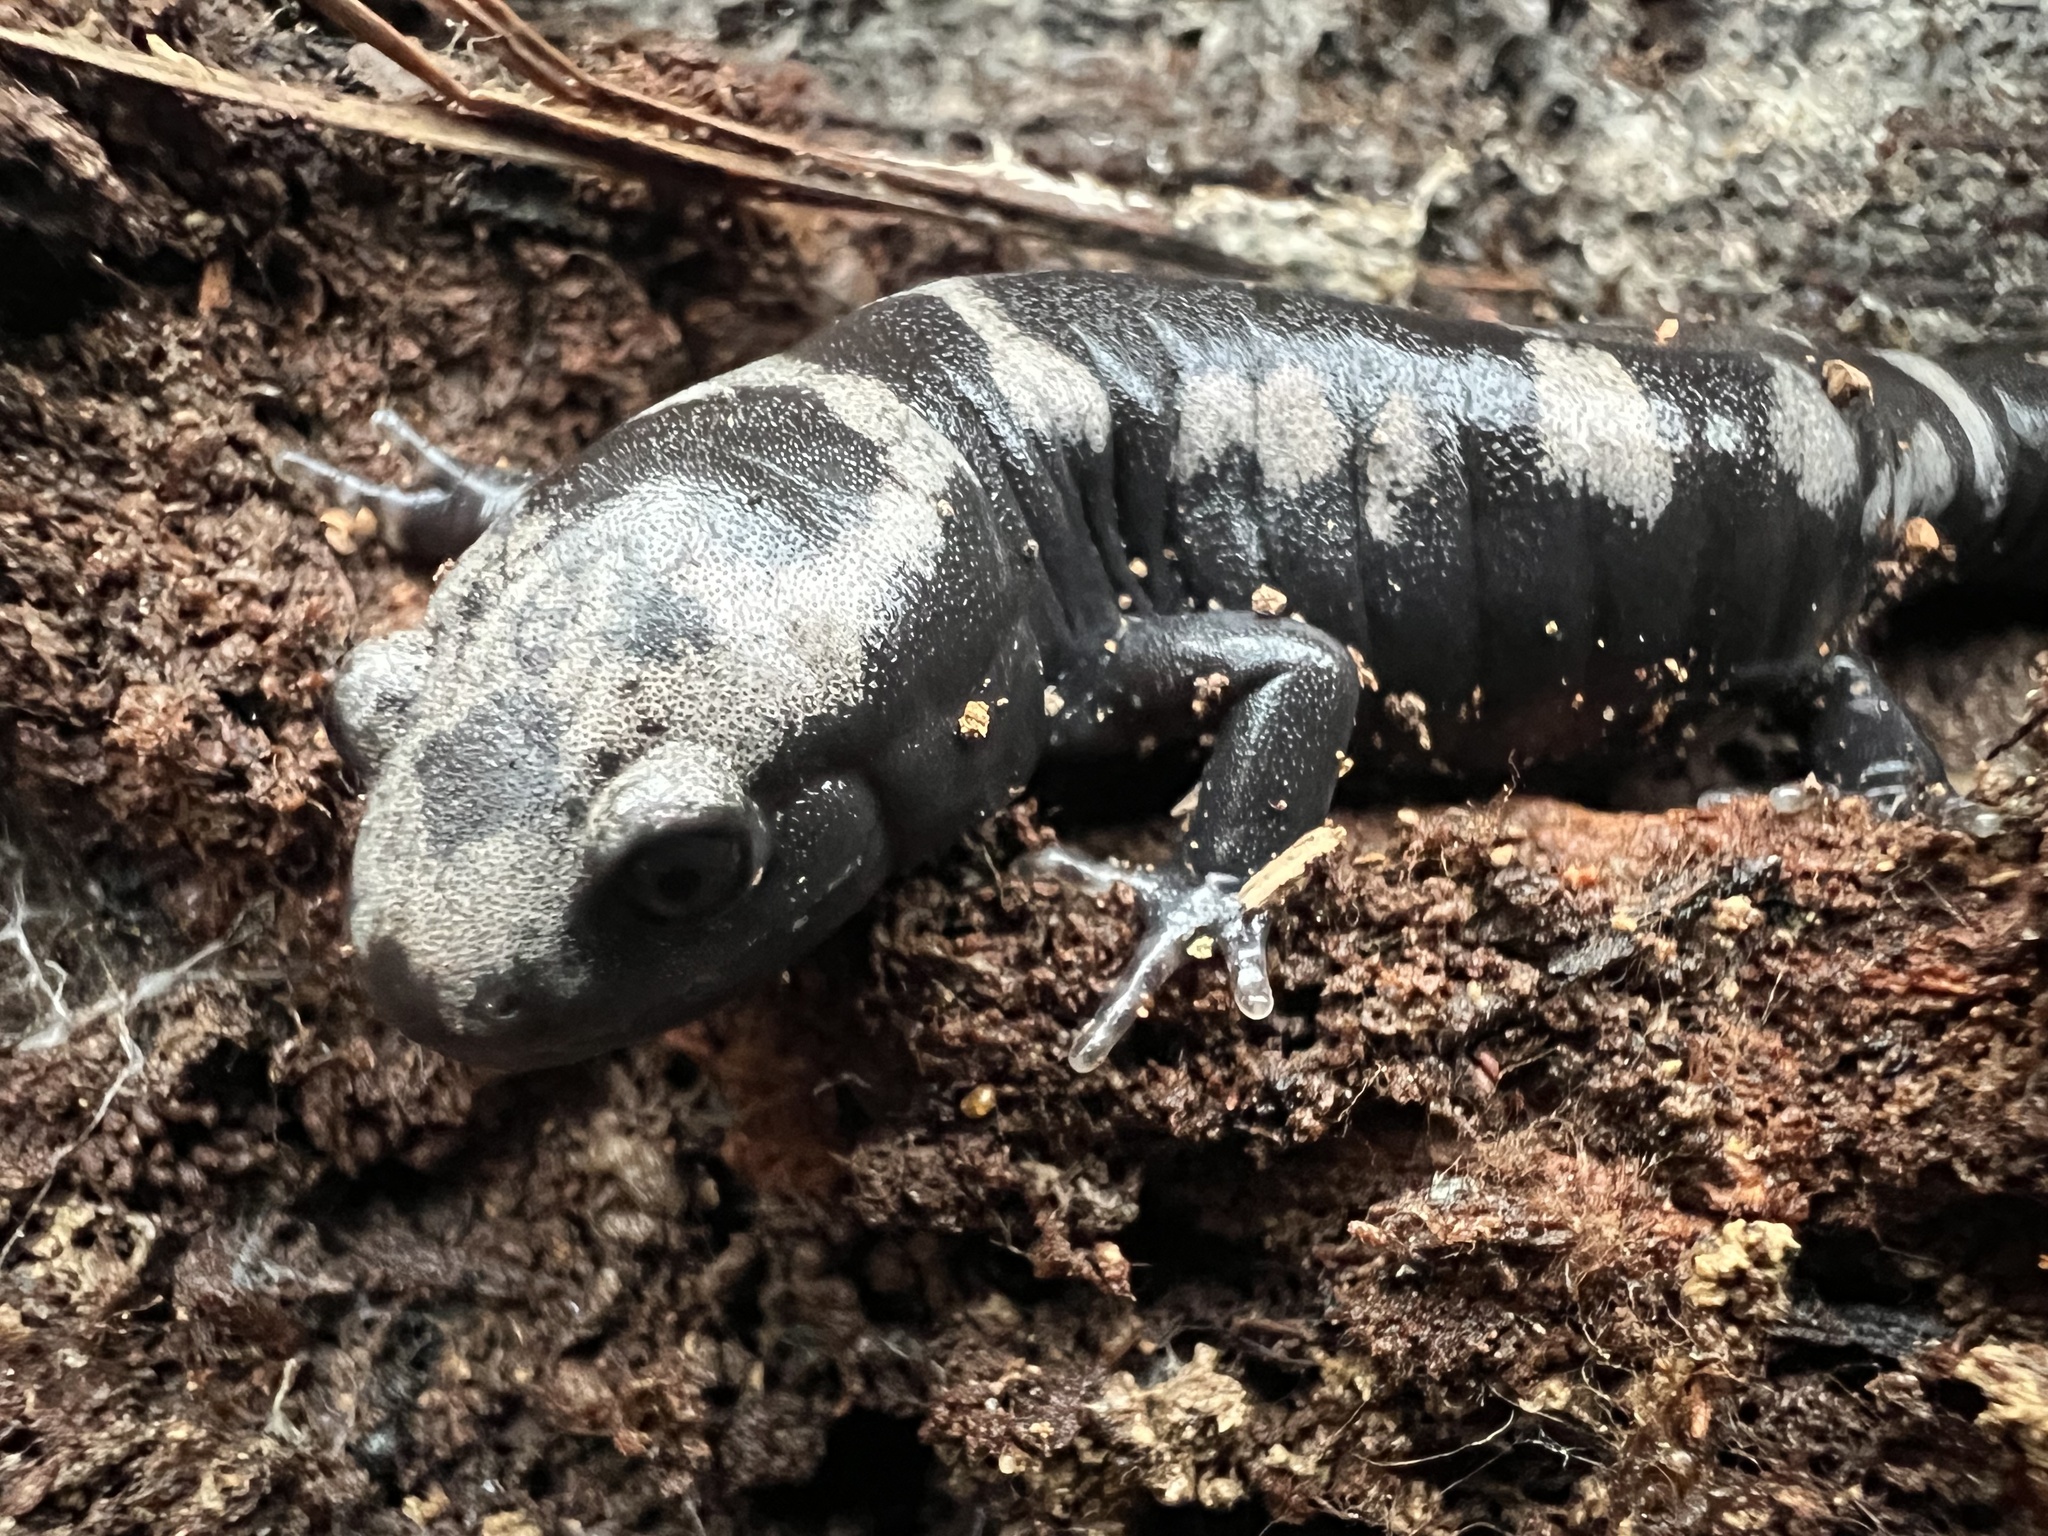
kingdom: Animalia
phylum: Chordata
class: Amphibia
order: Caudata
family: Ambystomatidae
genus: Ambystoma
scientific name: Ambystoma opacum
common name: Marbled salamander
